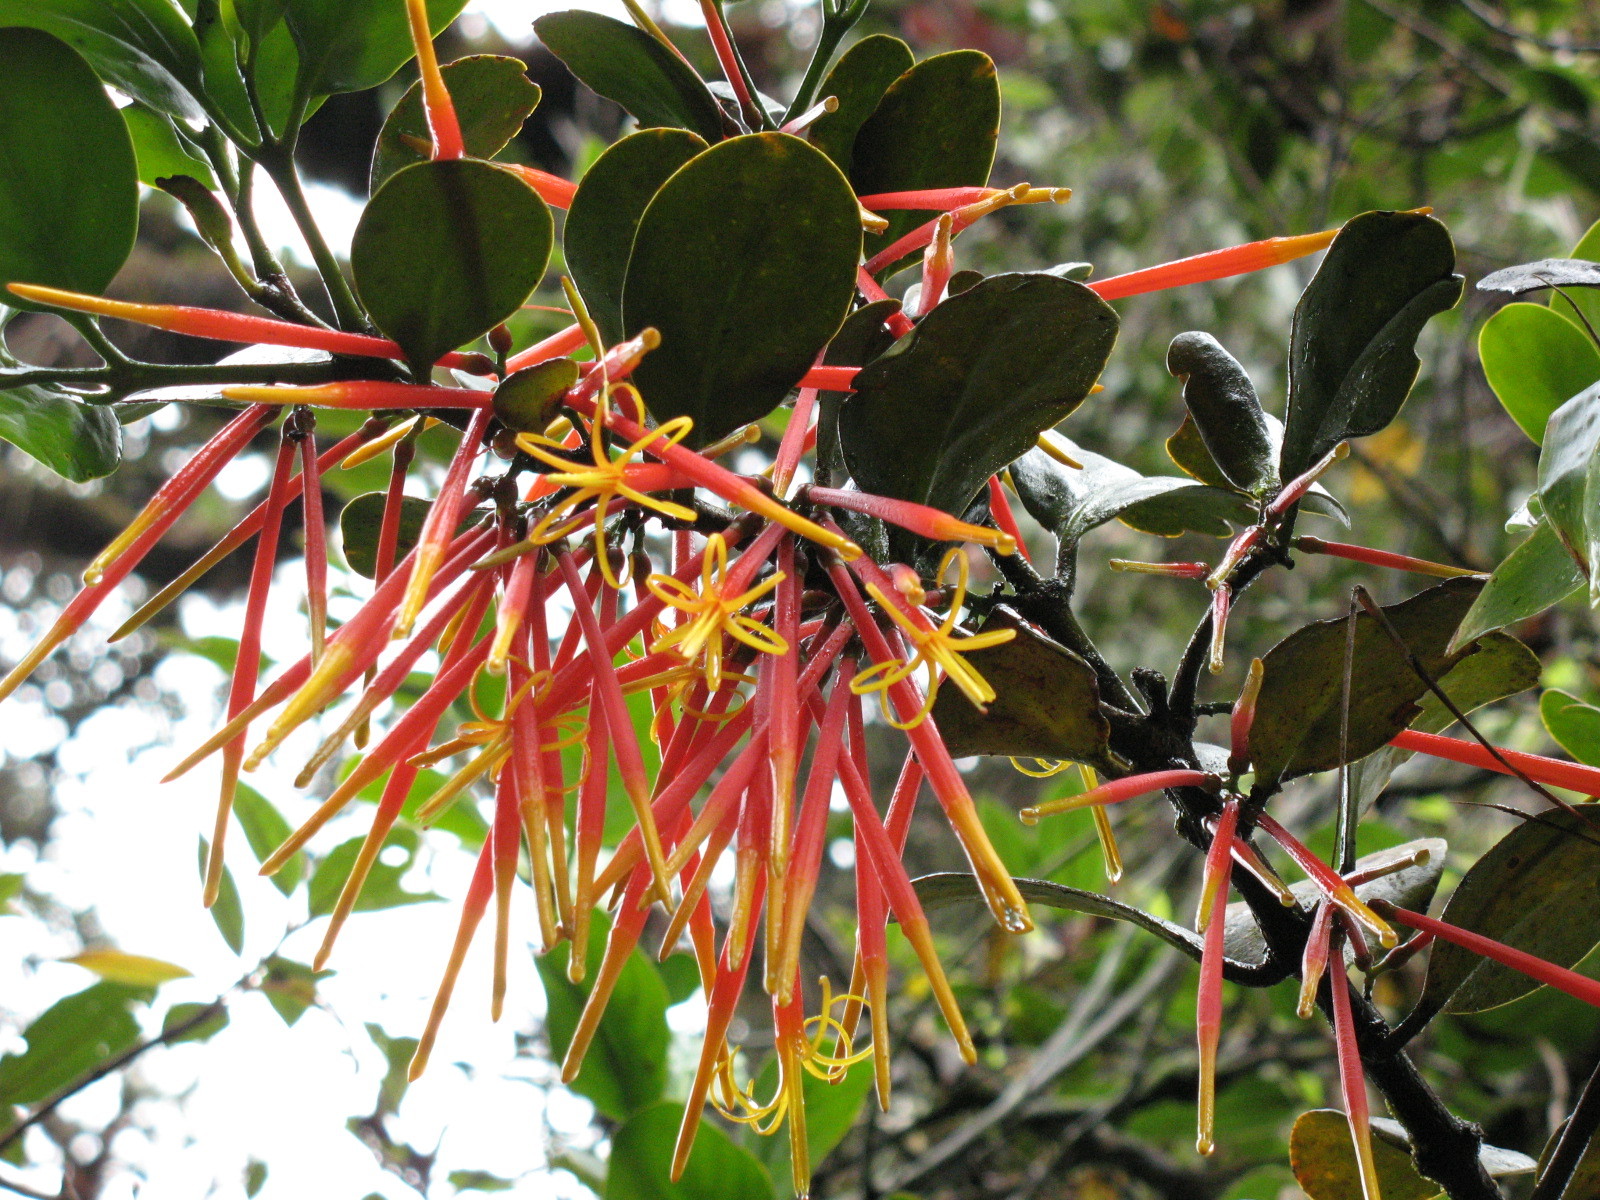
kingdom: Plantae
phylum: Tracheophyta
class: Magnoliopsida
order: Santalales
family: Loranthaceae
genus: Aetanthus
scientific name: Aetanthus coriaceus
